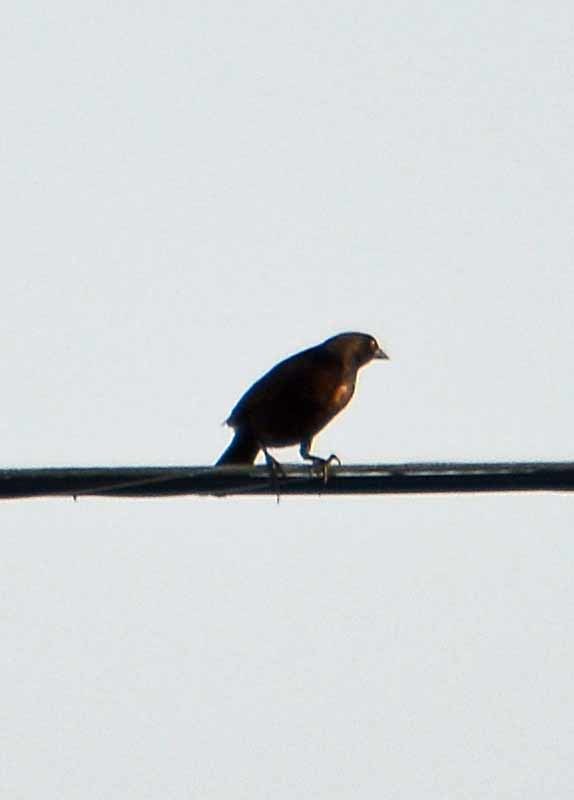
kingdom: Animalia
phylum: Chordata
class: Aves
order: Passeriformes
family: Icteridae
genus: Quiscalus
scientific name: Quiscalus mexicanus
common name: Great-tailed grackle
